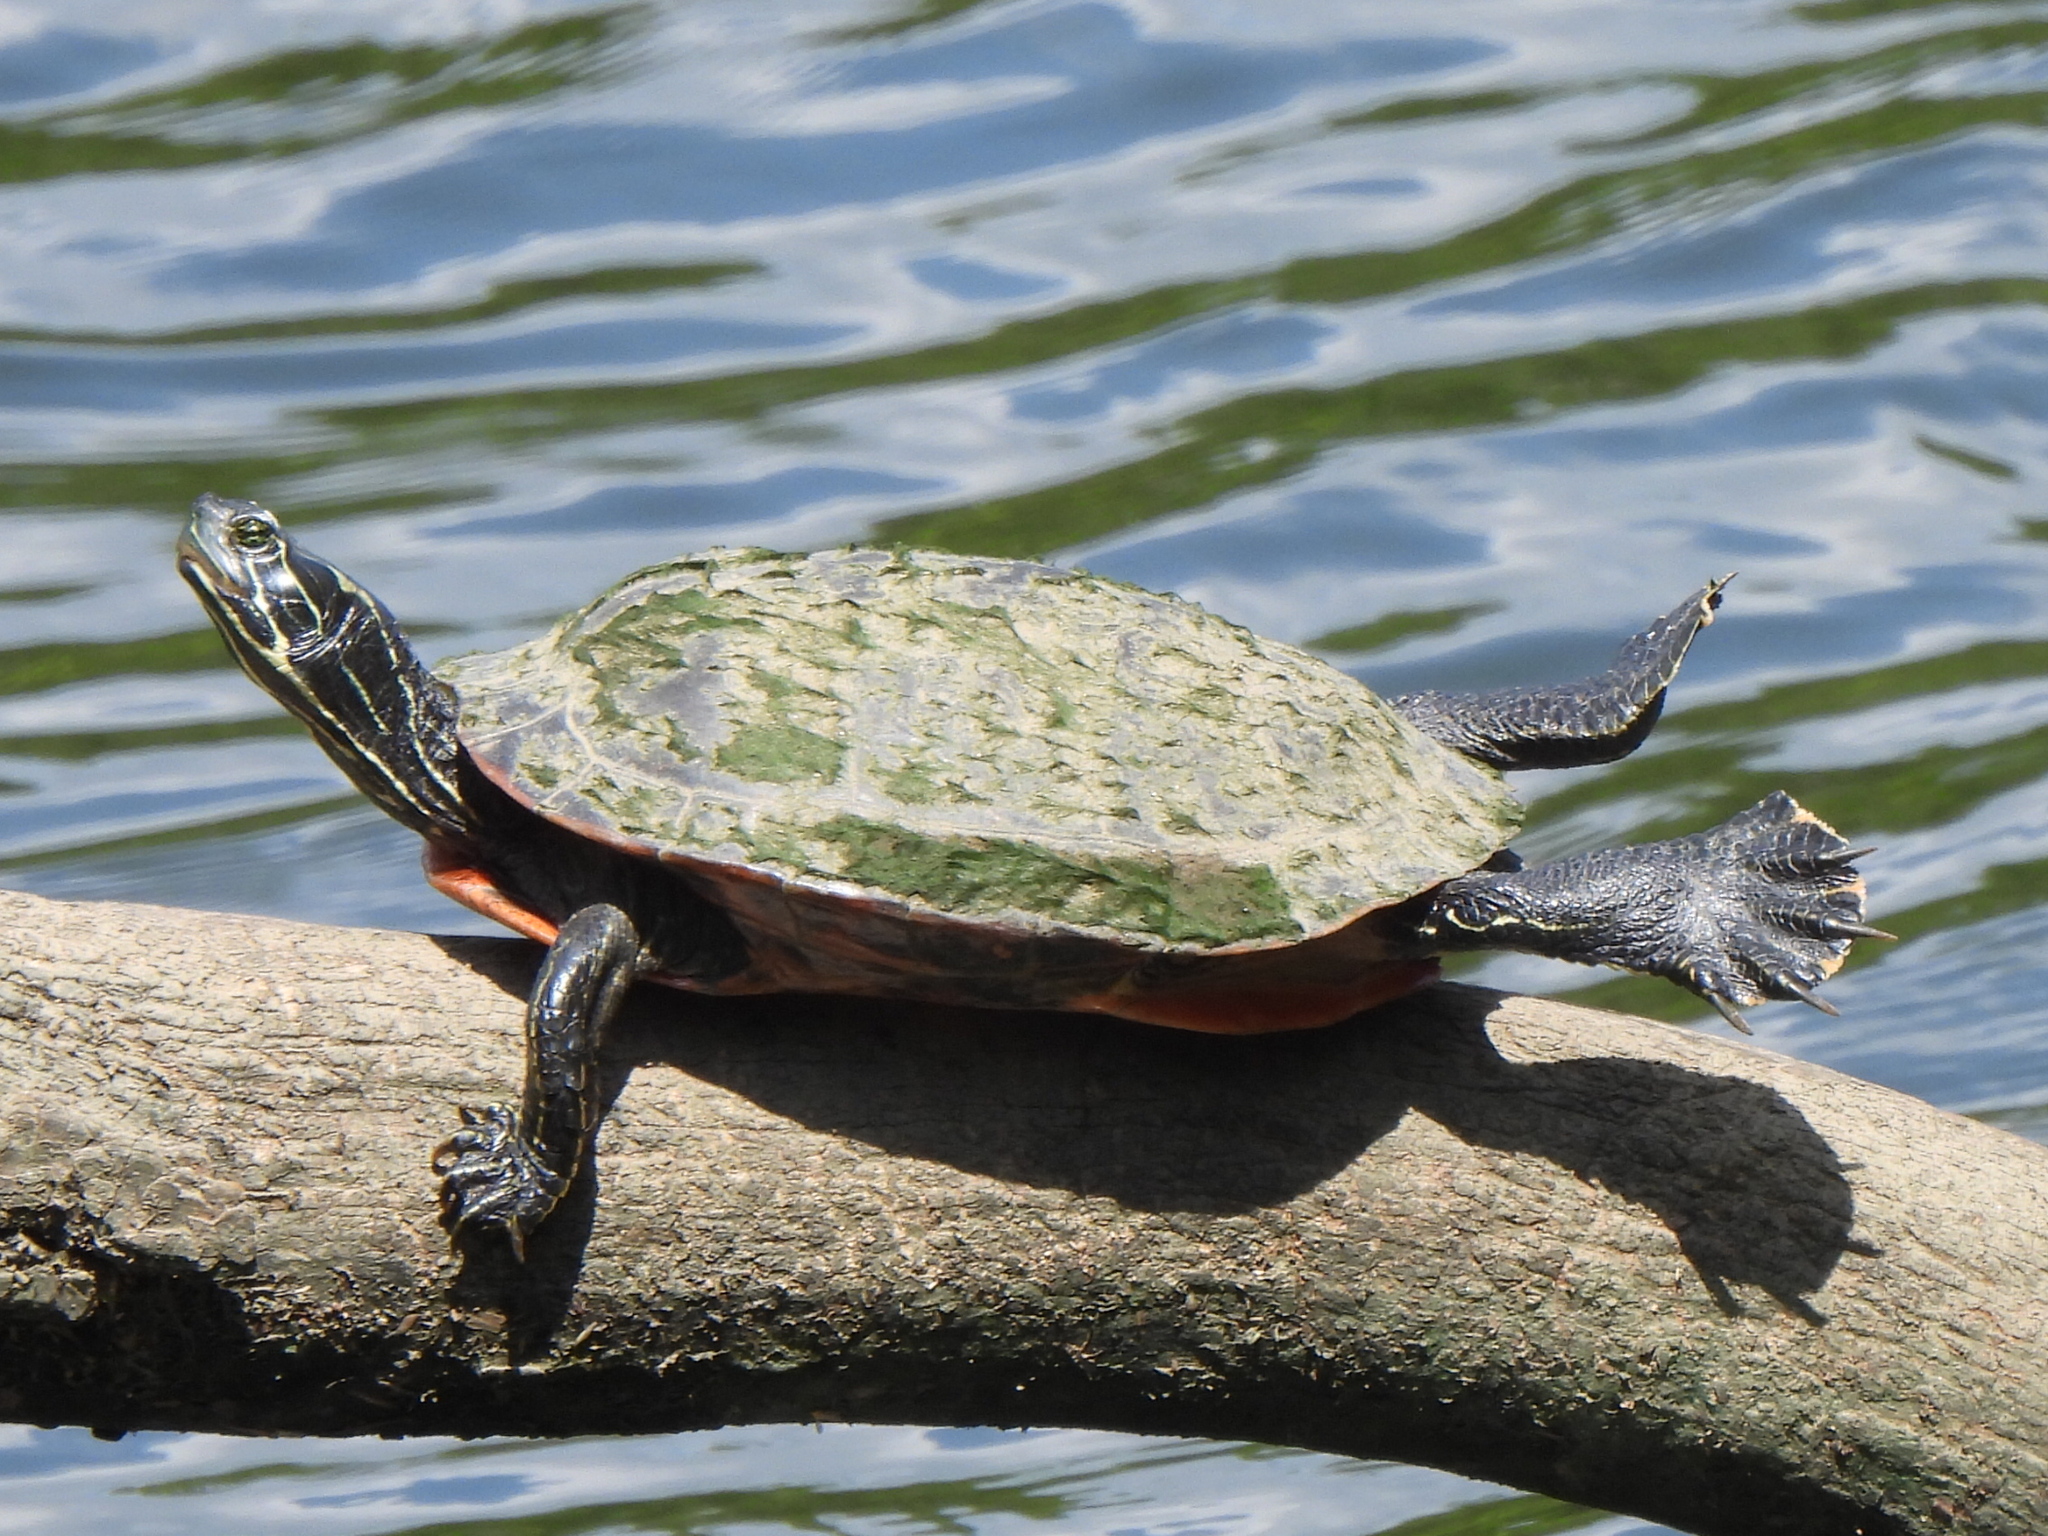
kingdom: Animalia
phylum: Chordata
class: Testudines
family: Emydidae
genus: Pseudemys
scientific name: Pseudemys rubriventris
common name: American red-bellied turtle
